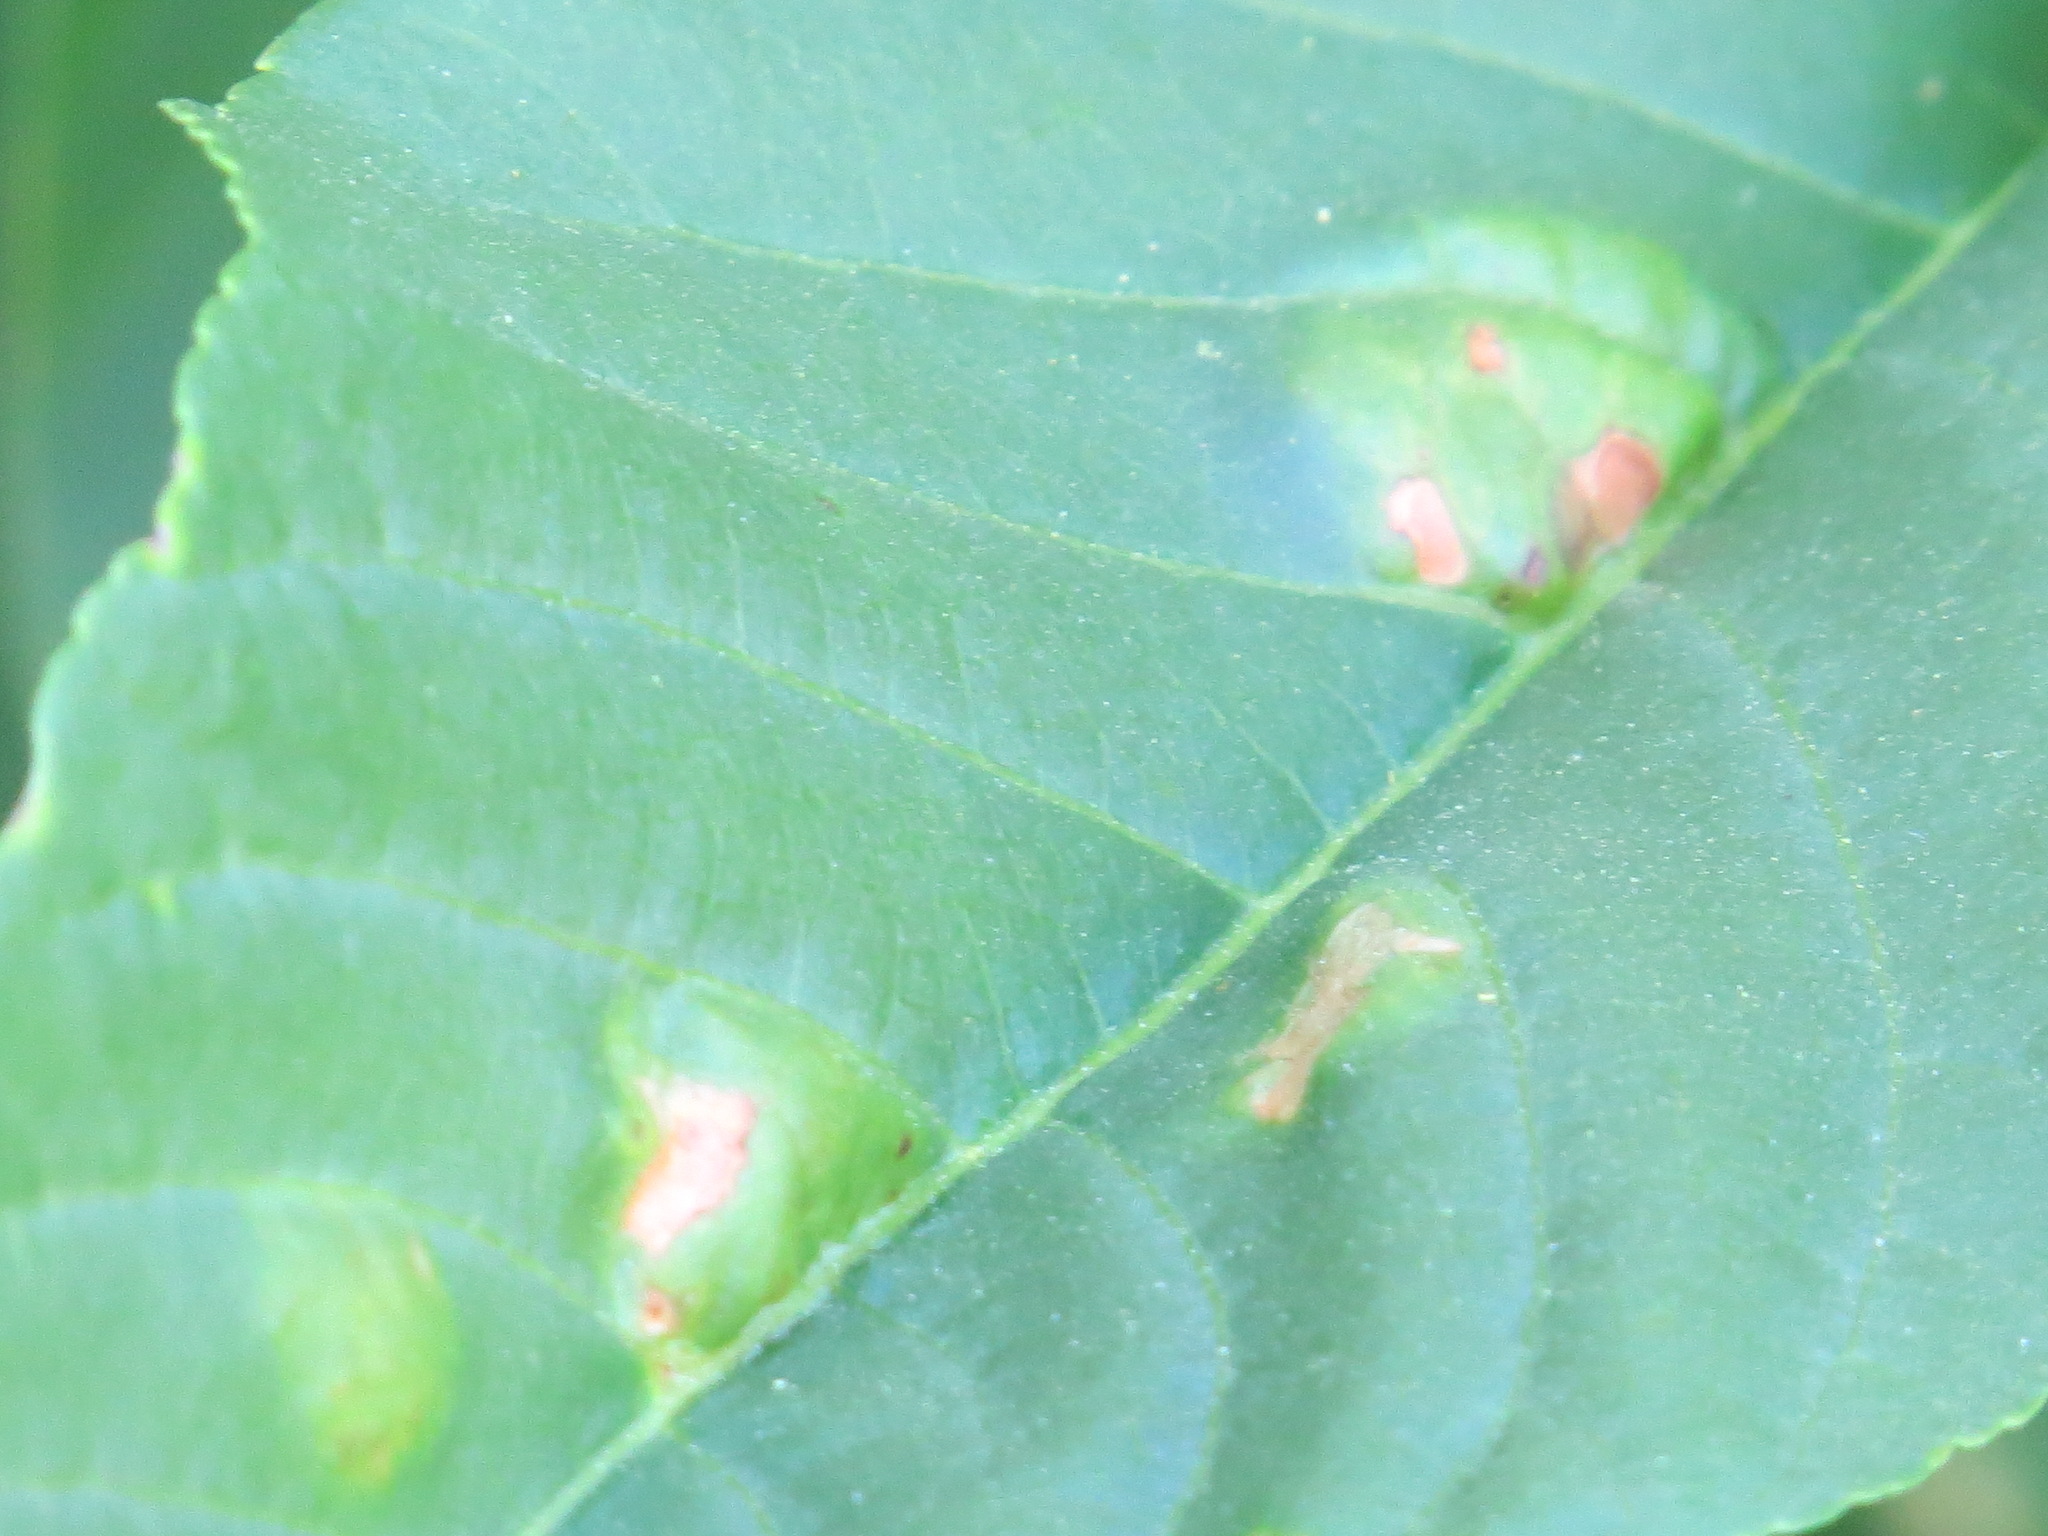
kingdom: Fungi
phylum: Ascomycota
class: Taphrinomycetes
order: Taphrinales
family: Taphrinaceae
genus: Taphrina
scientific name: Taphrina aesculi
